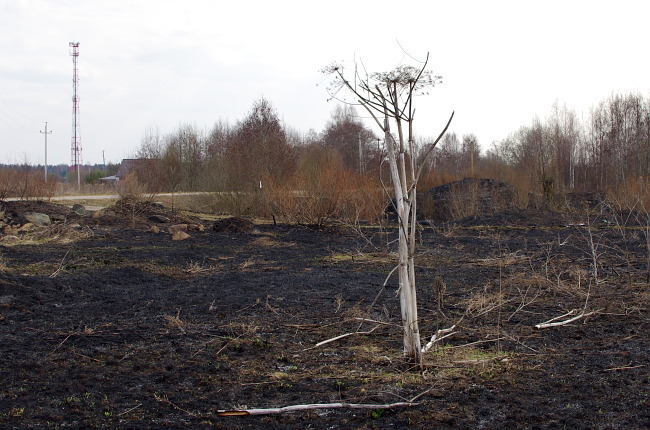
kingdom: Plantae
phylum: Tracheophyta
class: Magnoliopsida
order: Apiales
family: Apiaceae
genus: Heracleum
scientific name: Heracleum sosnowskyi
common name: Sosnowsky's hogweed
